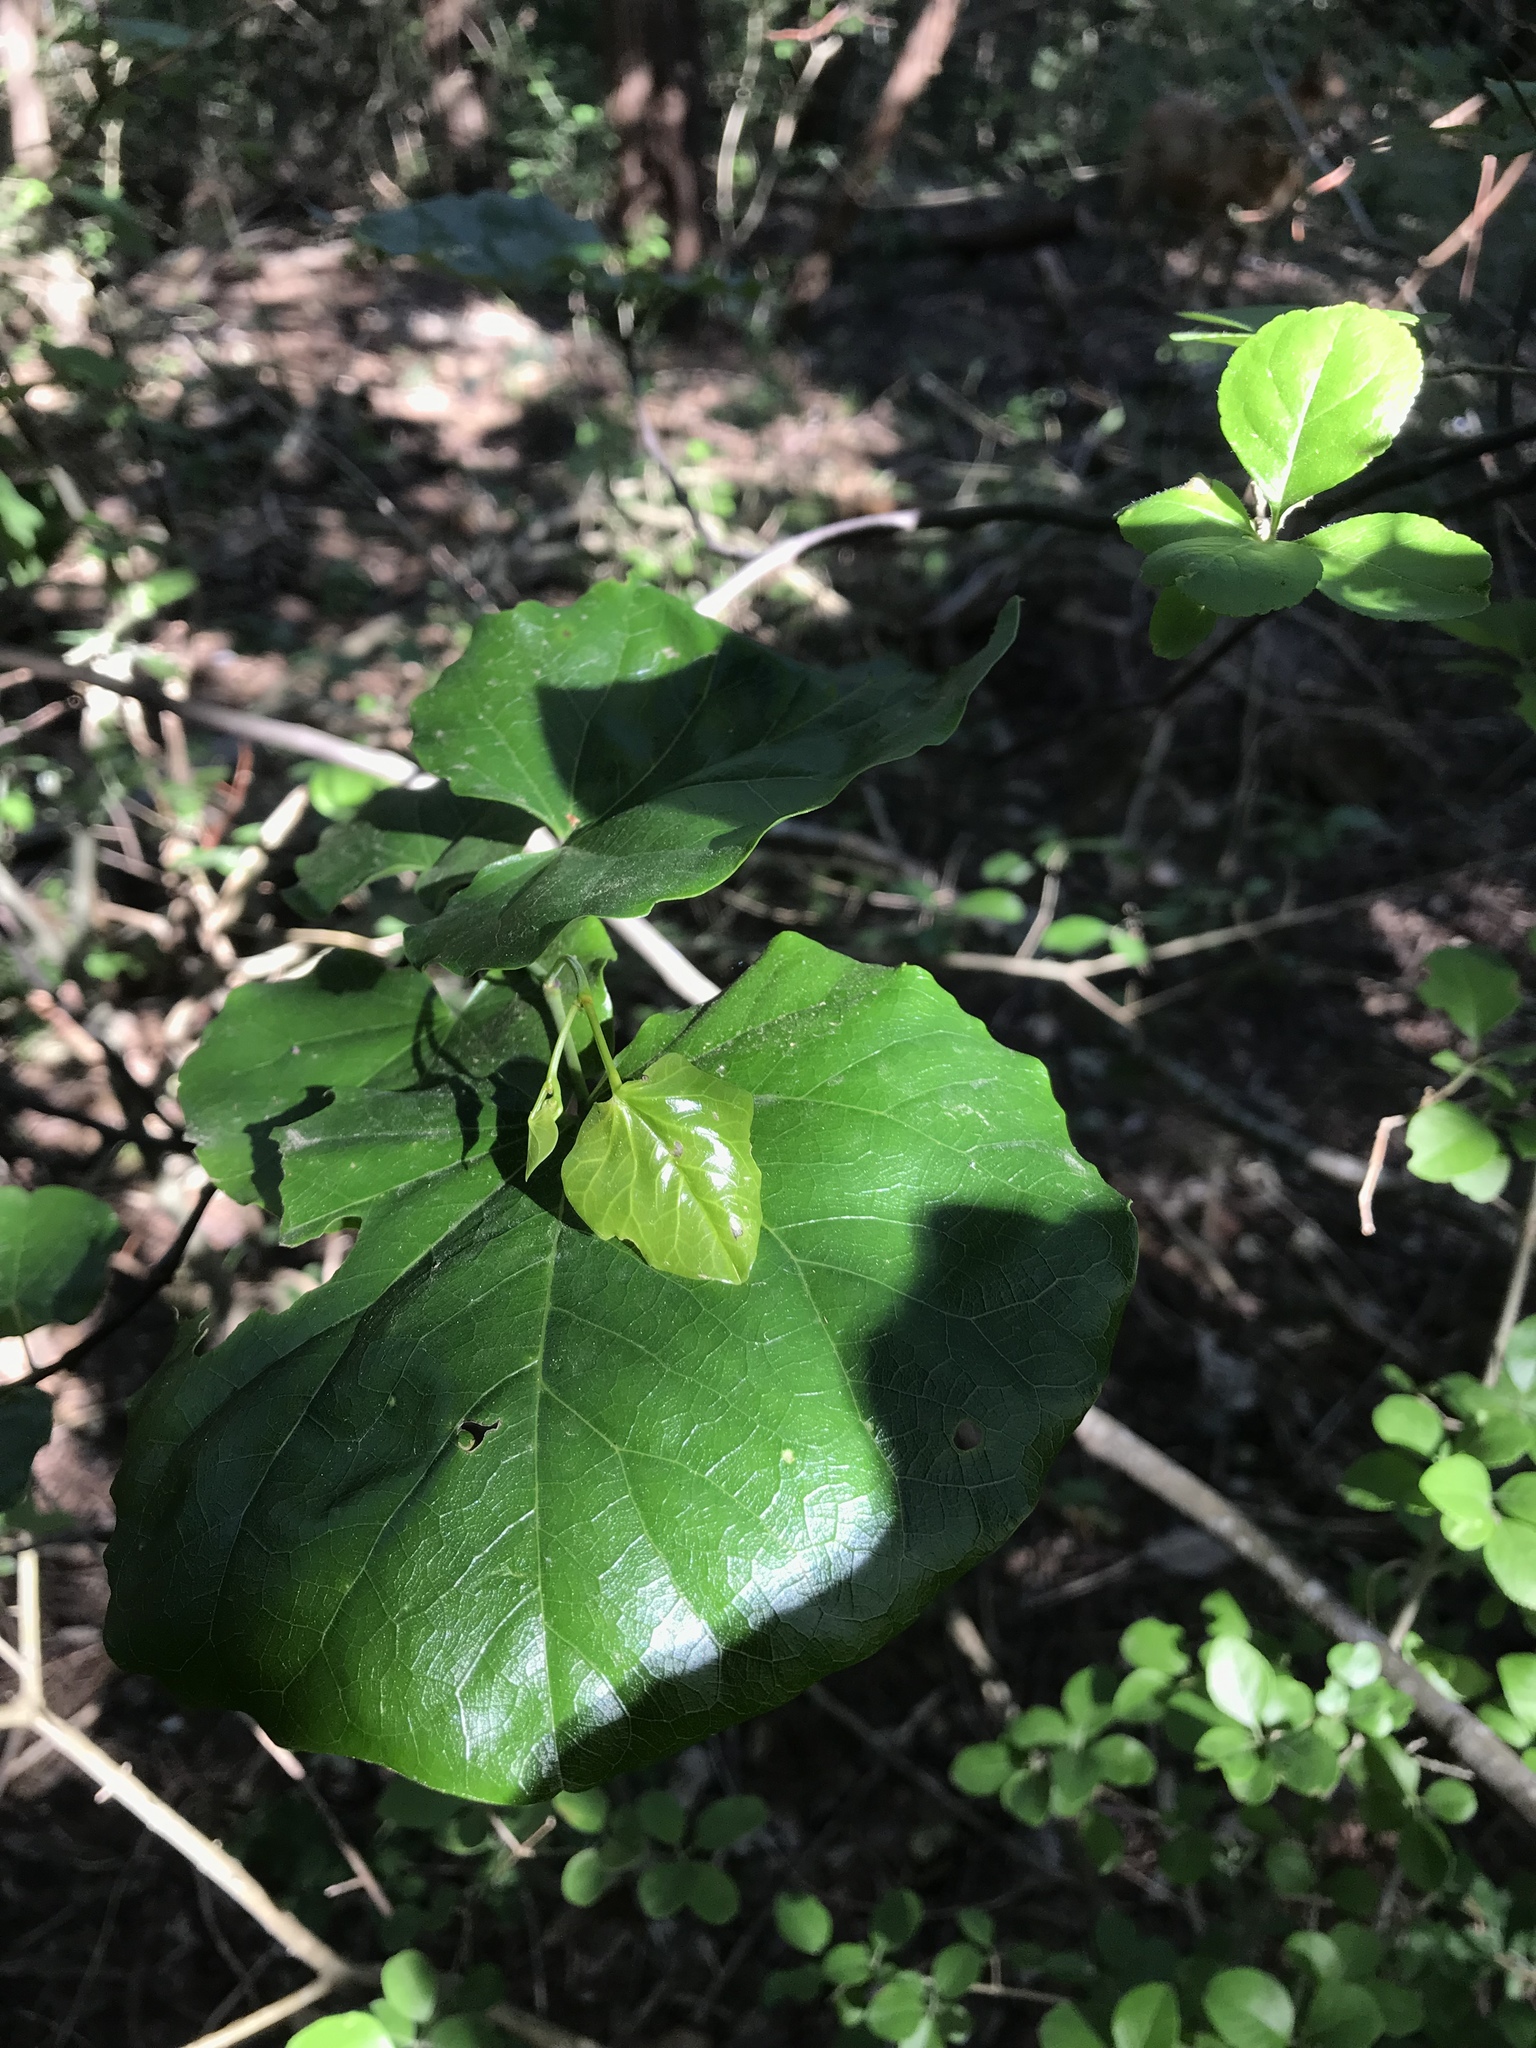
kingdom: Plantae
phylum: Tracheophyta
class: Magnoliopsida
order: Fabales
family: Fabaceae
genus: Cercis
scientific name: Cercis canadensis
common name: Eastern redbud
